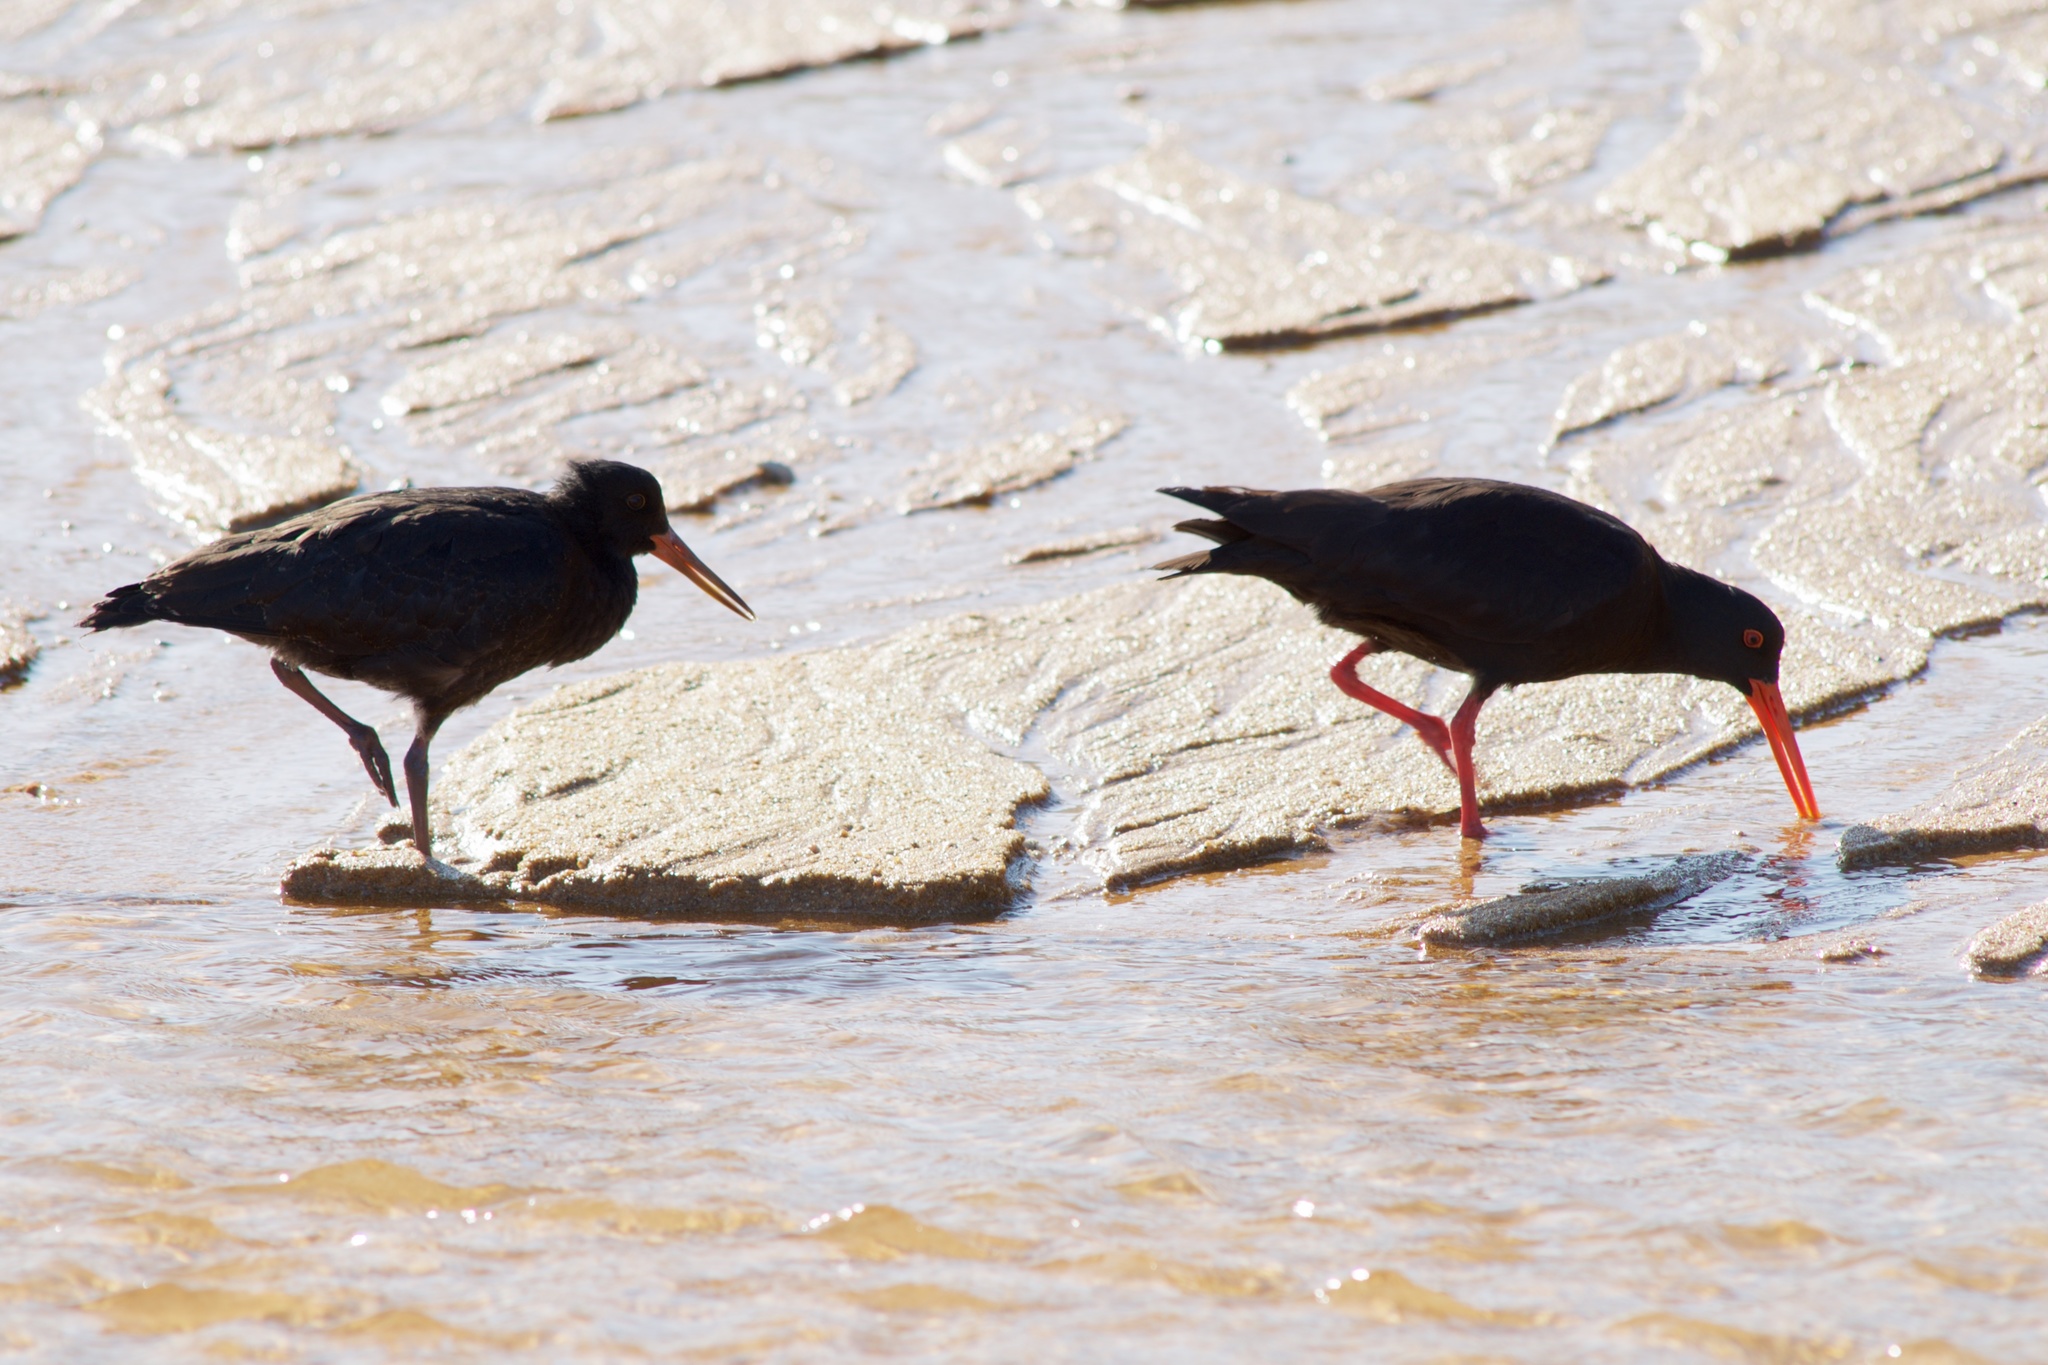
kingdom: Animalia
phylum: Chordata
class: Aves
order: Charadriiformes
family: Haematopodidae
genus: Haematopus
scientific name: Haematopus unicolor
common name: Variable oystercatcher
